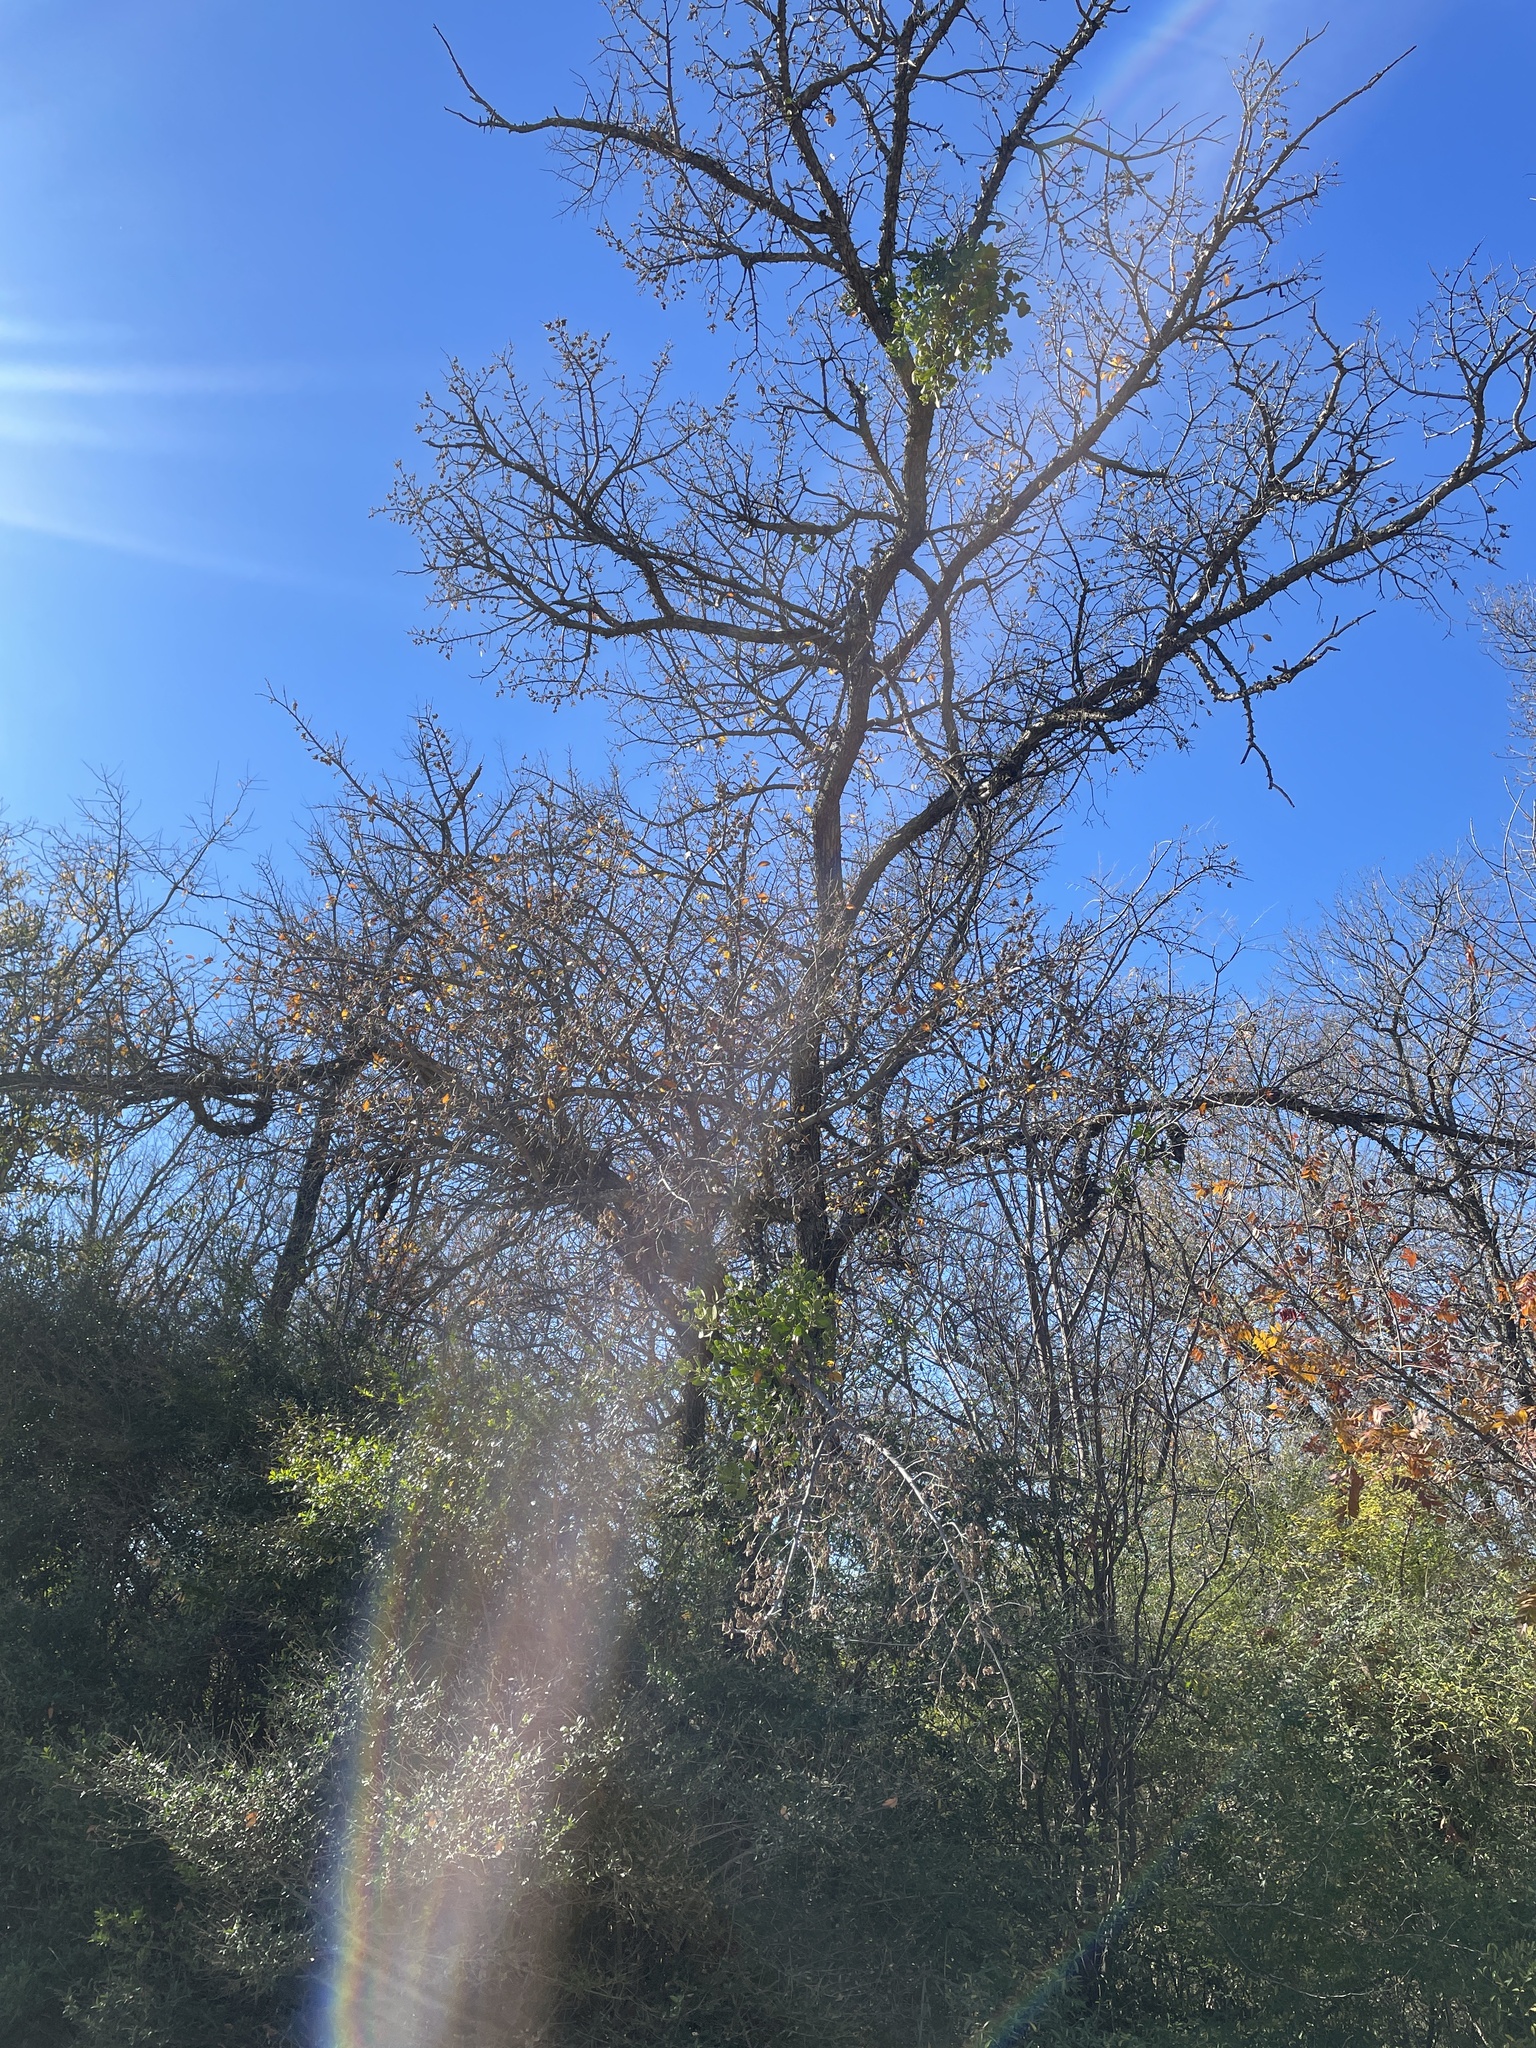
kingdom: Plantae
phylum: Tracheophyta
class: Magnoliopsida
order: Rosales
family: Ulmaceae
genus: Ulmus
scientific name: Ulmus crassifolia
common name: Basket elm
